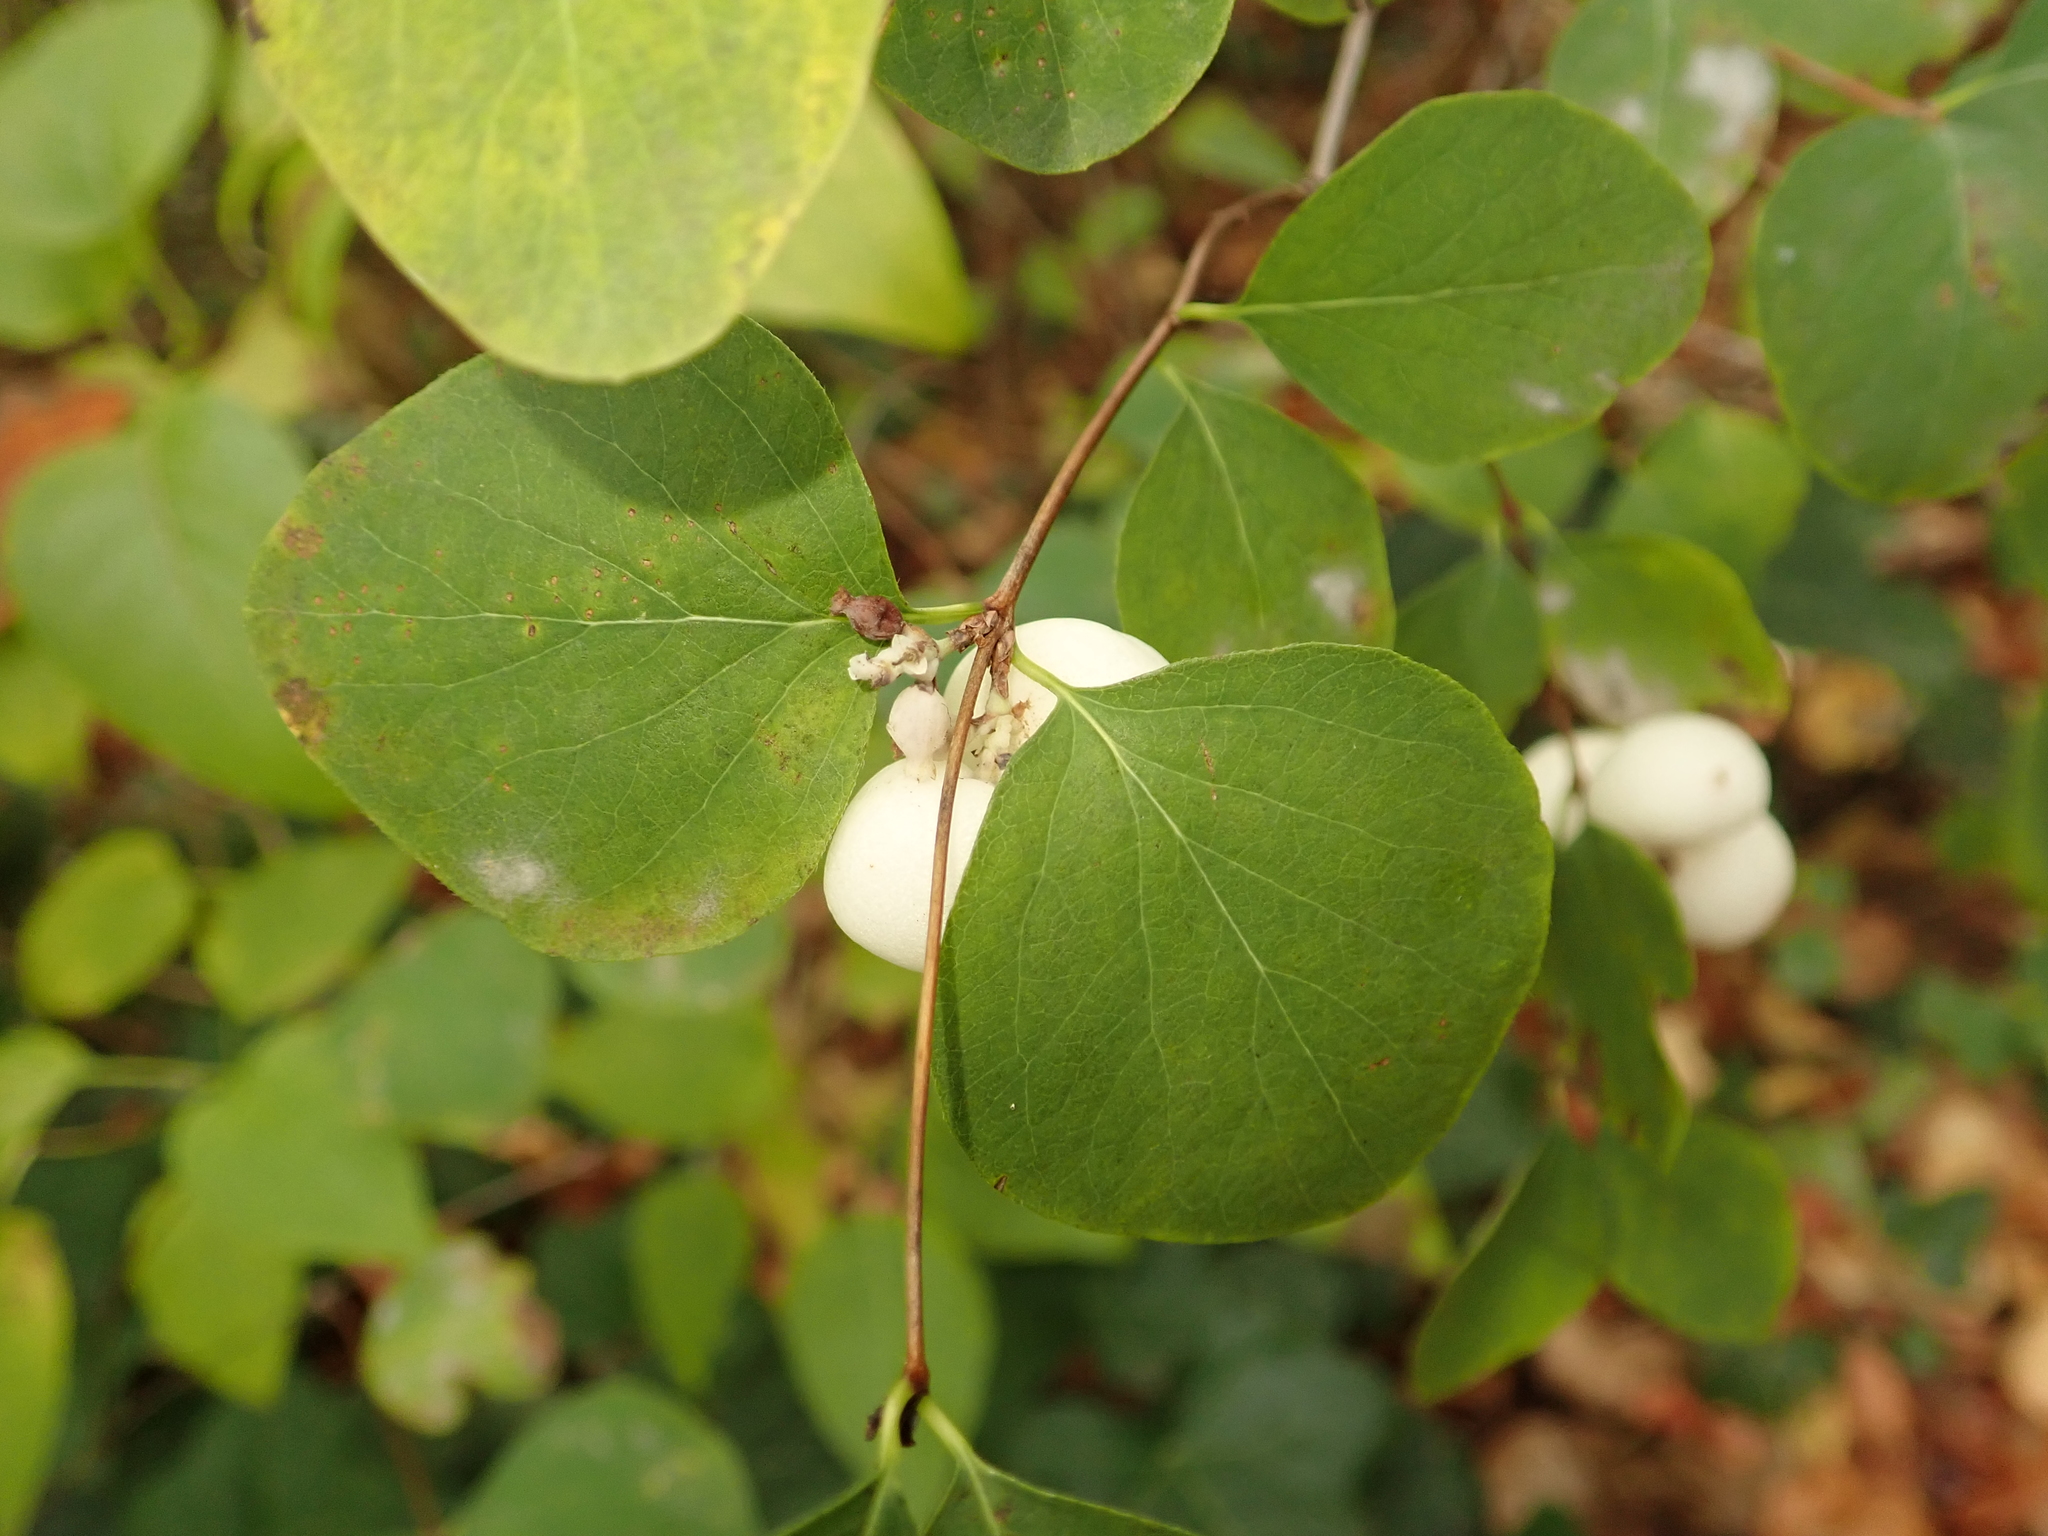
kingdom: Plantae
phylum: Tracheophyta
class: Magnoliopsida
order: Dipsacales
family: Caprifoliaceae
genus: Symphoricarpos
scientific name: Symphoricarpos albus
